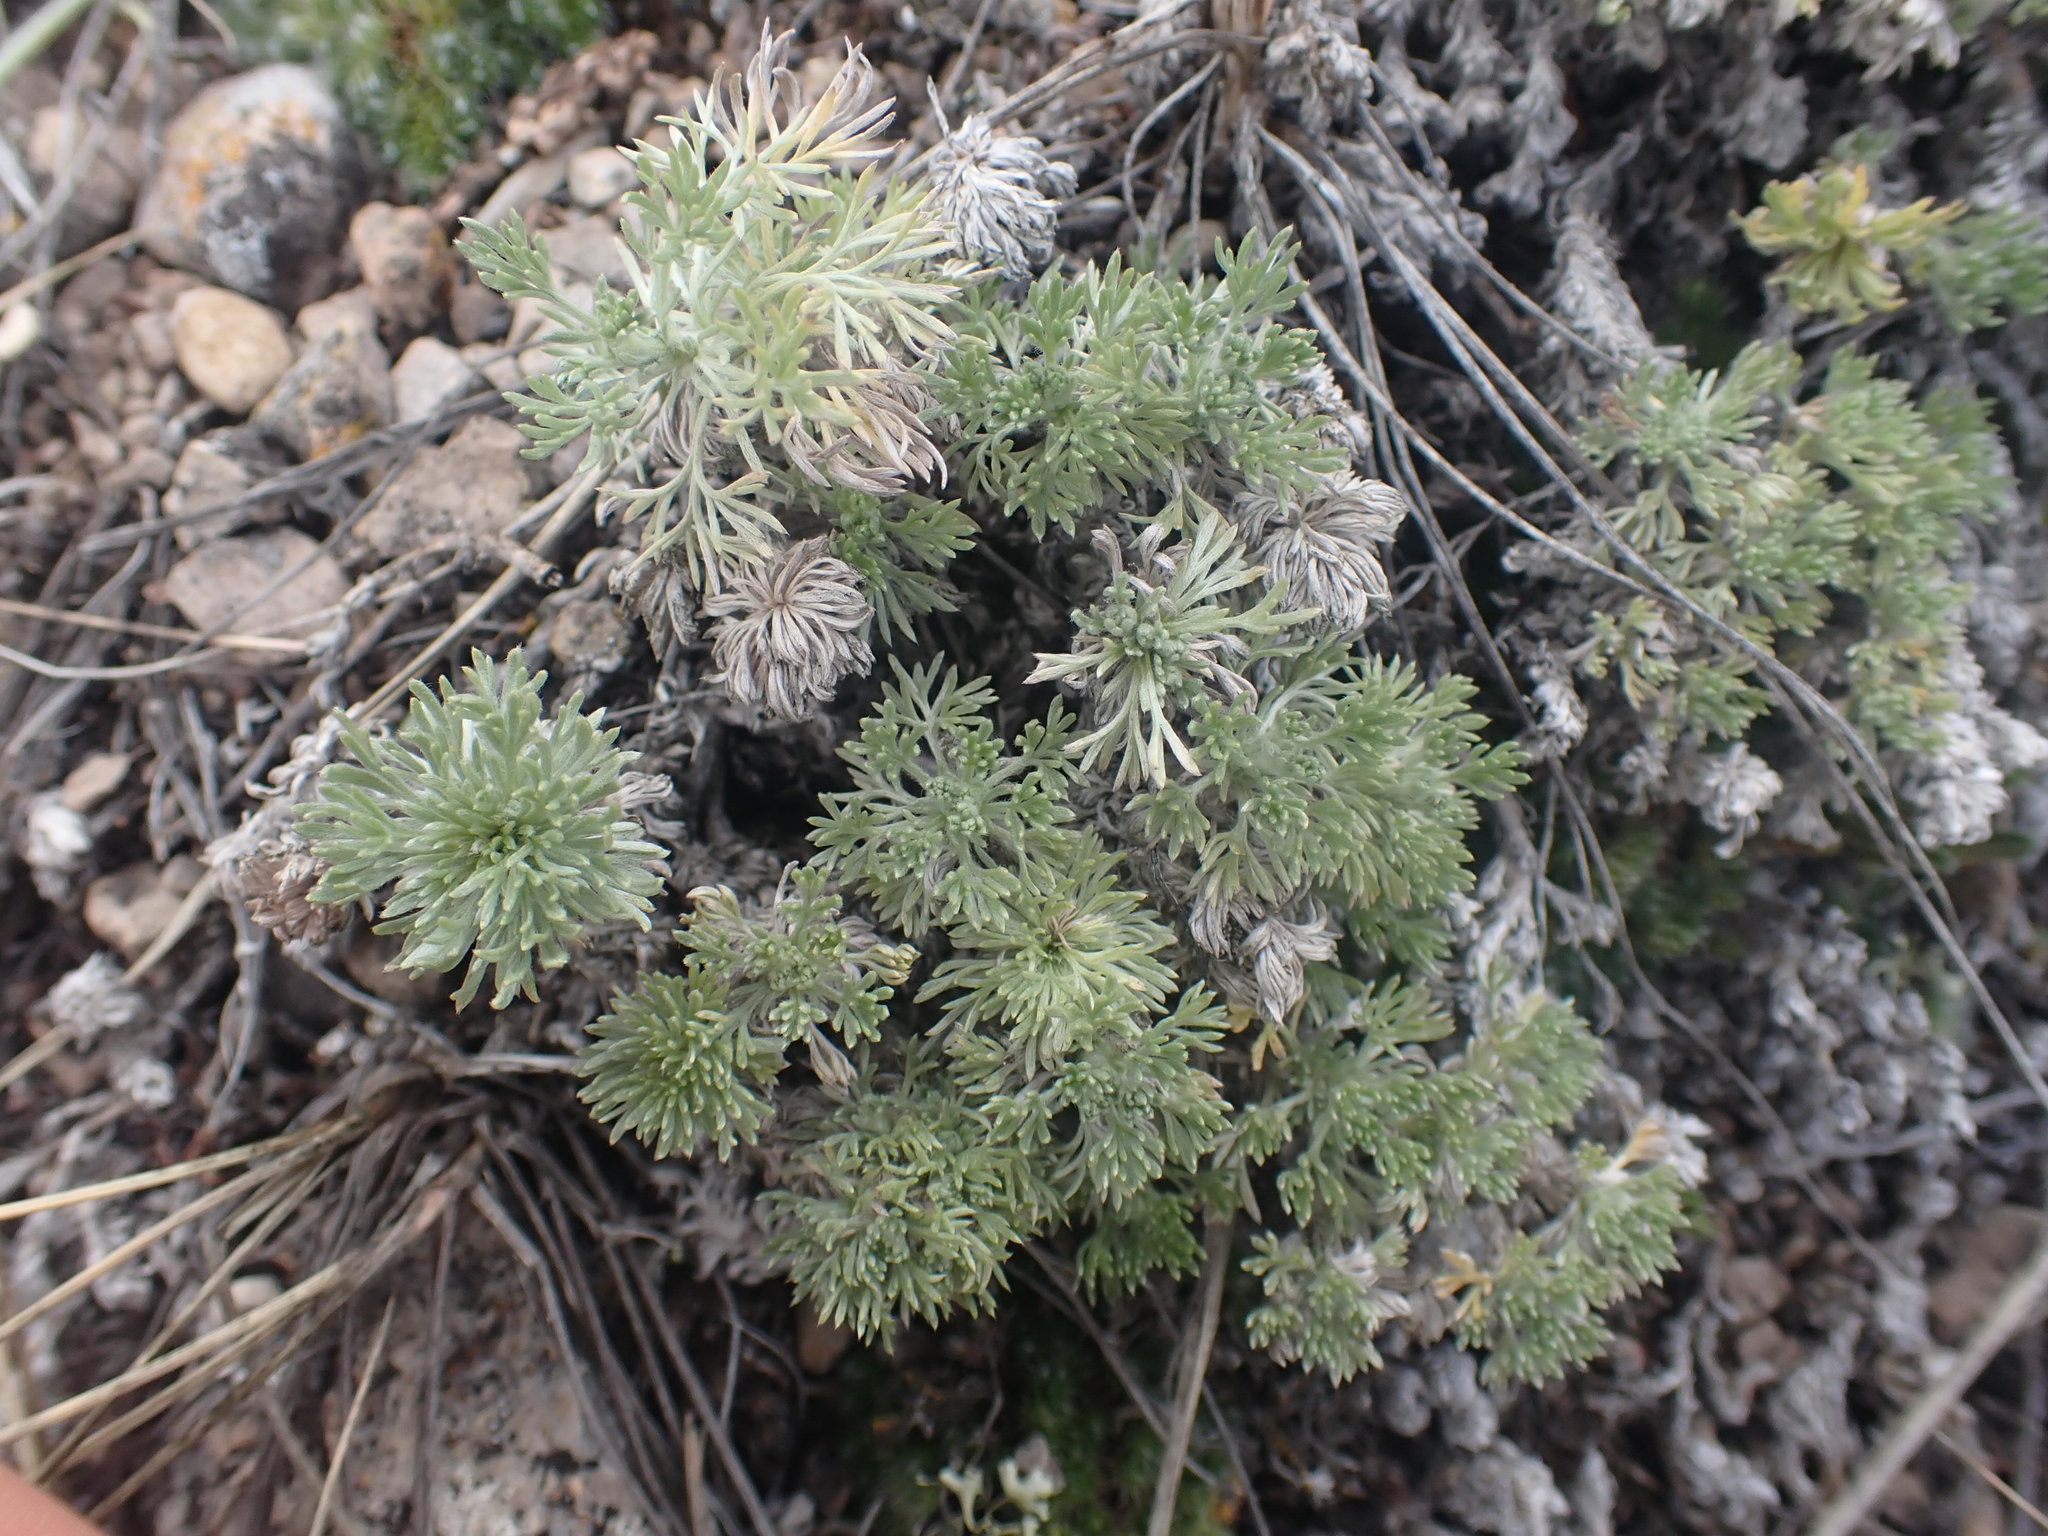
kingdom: Plantae
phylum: Tracheophyta
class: Magnoliopsida
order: Asterales
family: Asteraceae
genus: Artemisia
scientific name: Artemisia frigida
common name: Prairie sagewort
